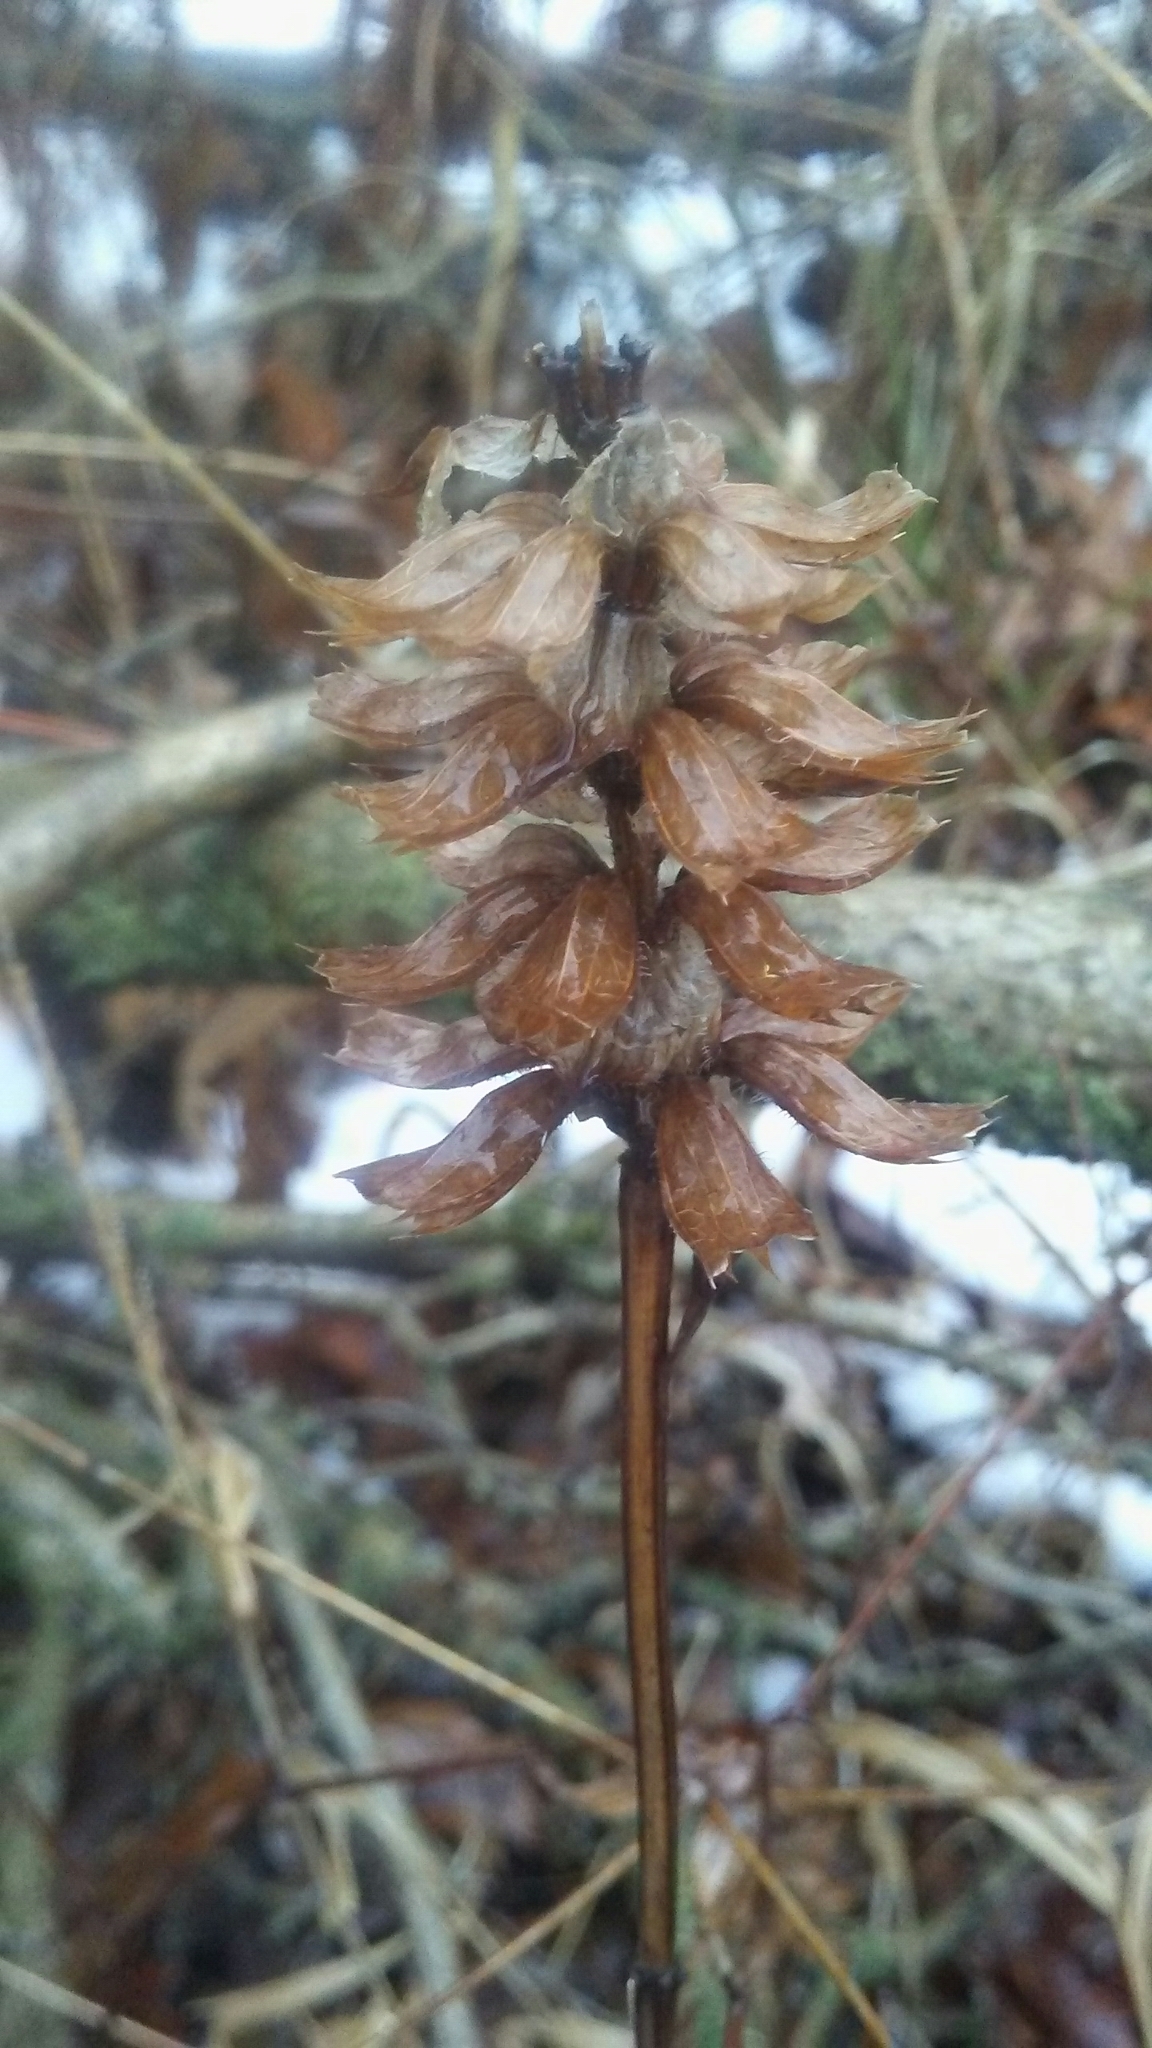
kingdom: Plantae
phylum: Tracheophyta
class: Magnoliopsida
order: Lamiales
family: Lamiaceae
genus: Prunella
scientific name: Prunella vulgaris
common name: Heal-all
